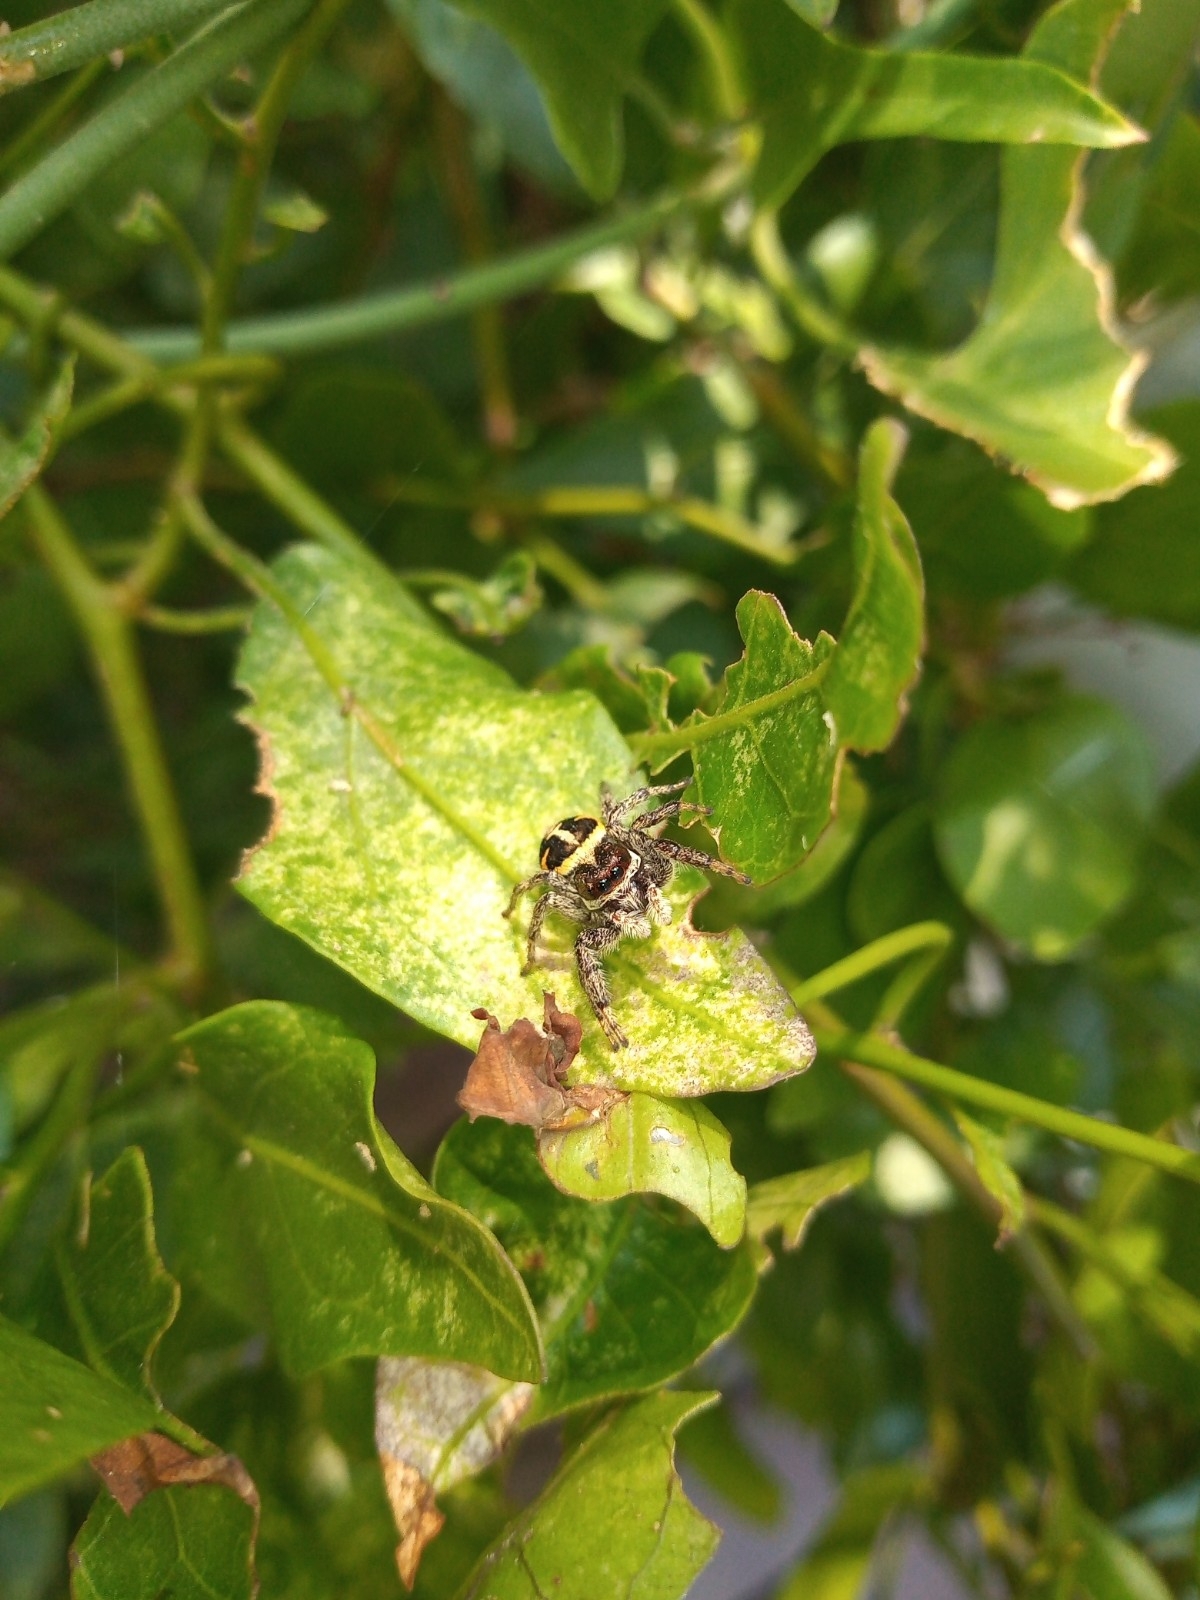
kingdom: Animalia
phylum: Arthropoda
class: Arachnida
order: Araneae
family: Salticidae
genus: Phiale
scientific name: Phiale roburifoliata
